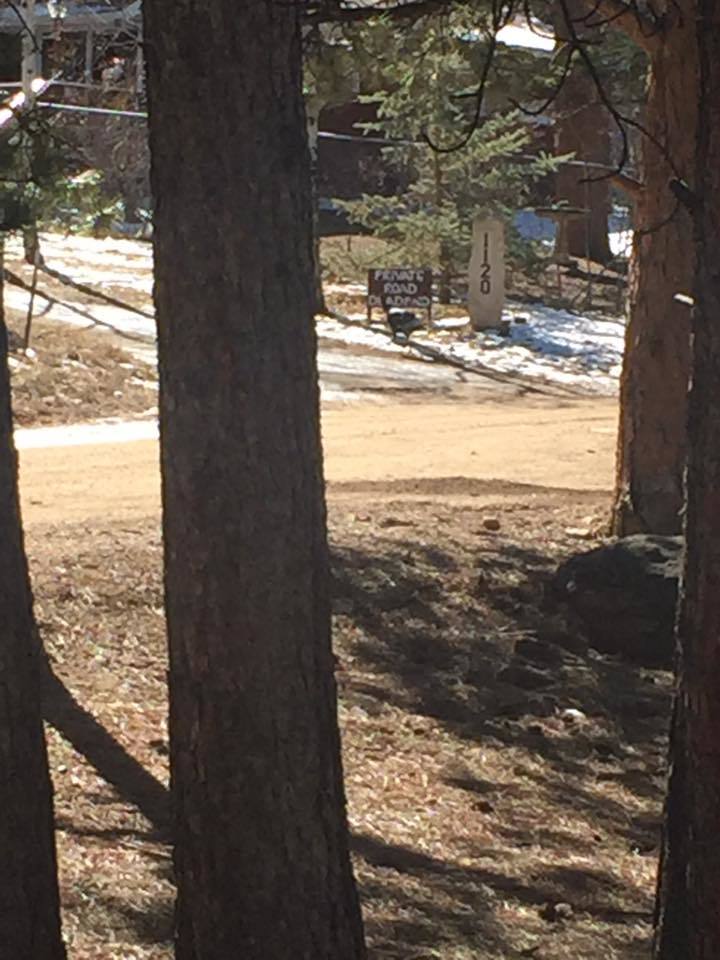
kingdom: Animalia
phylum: Chordata
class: Aves
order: Galliformes
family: Phasianidae
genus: Meleagris
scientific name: Meleagris gallopavo
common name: Wild turkey
